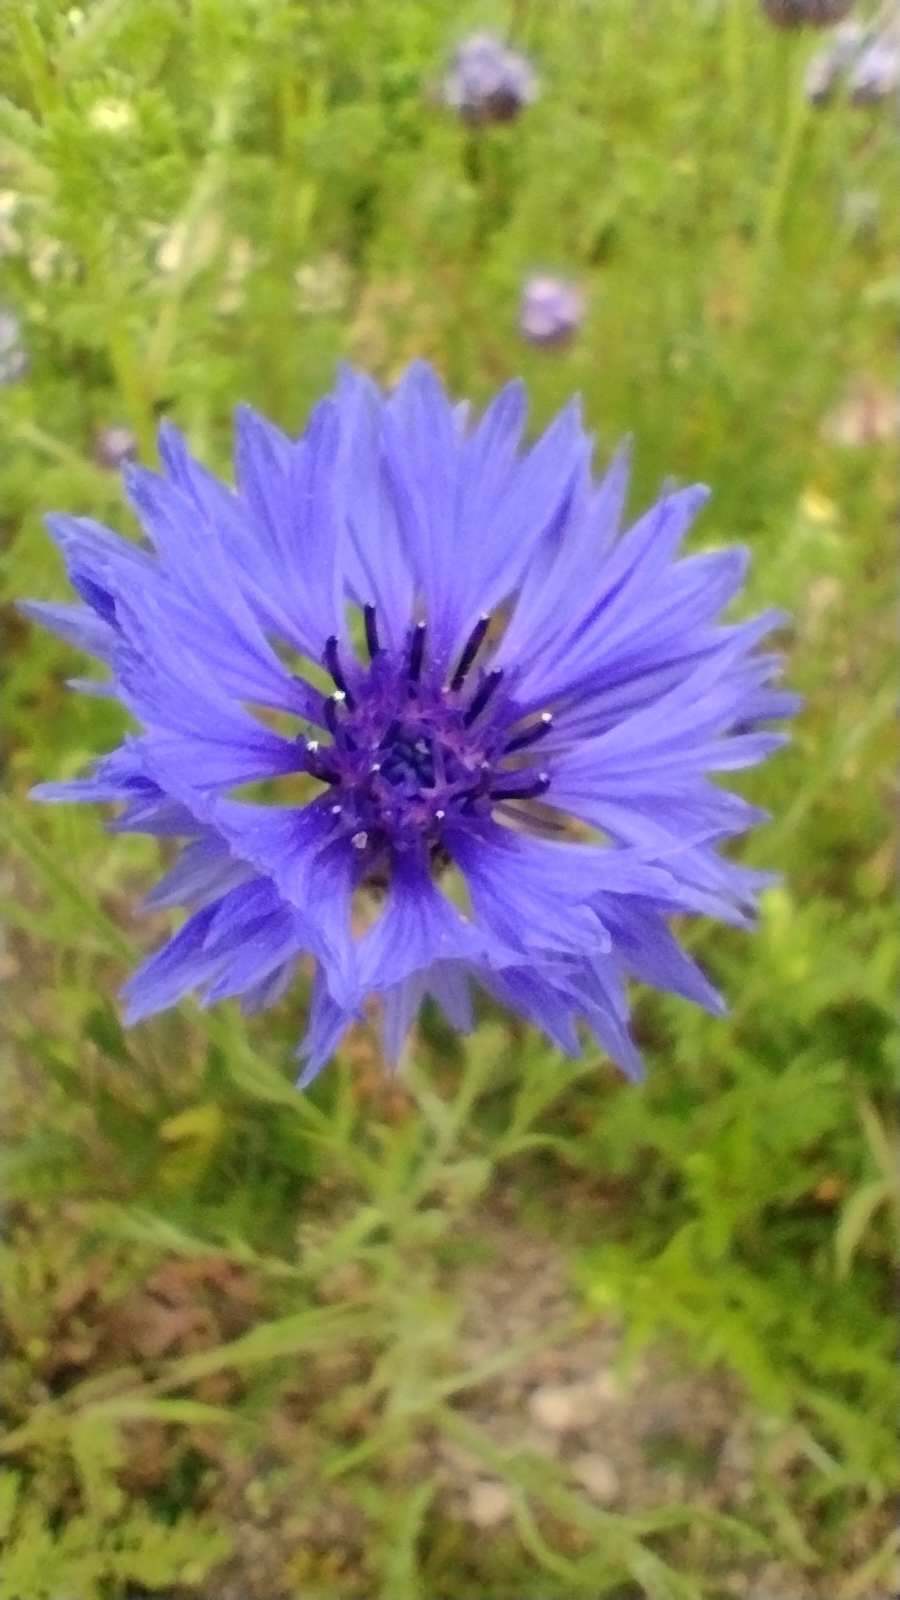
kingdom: Plantae
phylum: Tracheophyta
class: Magnoliopsida
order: Asterales
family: Asteraceae
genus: Centaurea
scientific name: Centaurea cyanus
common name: Cornflower
